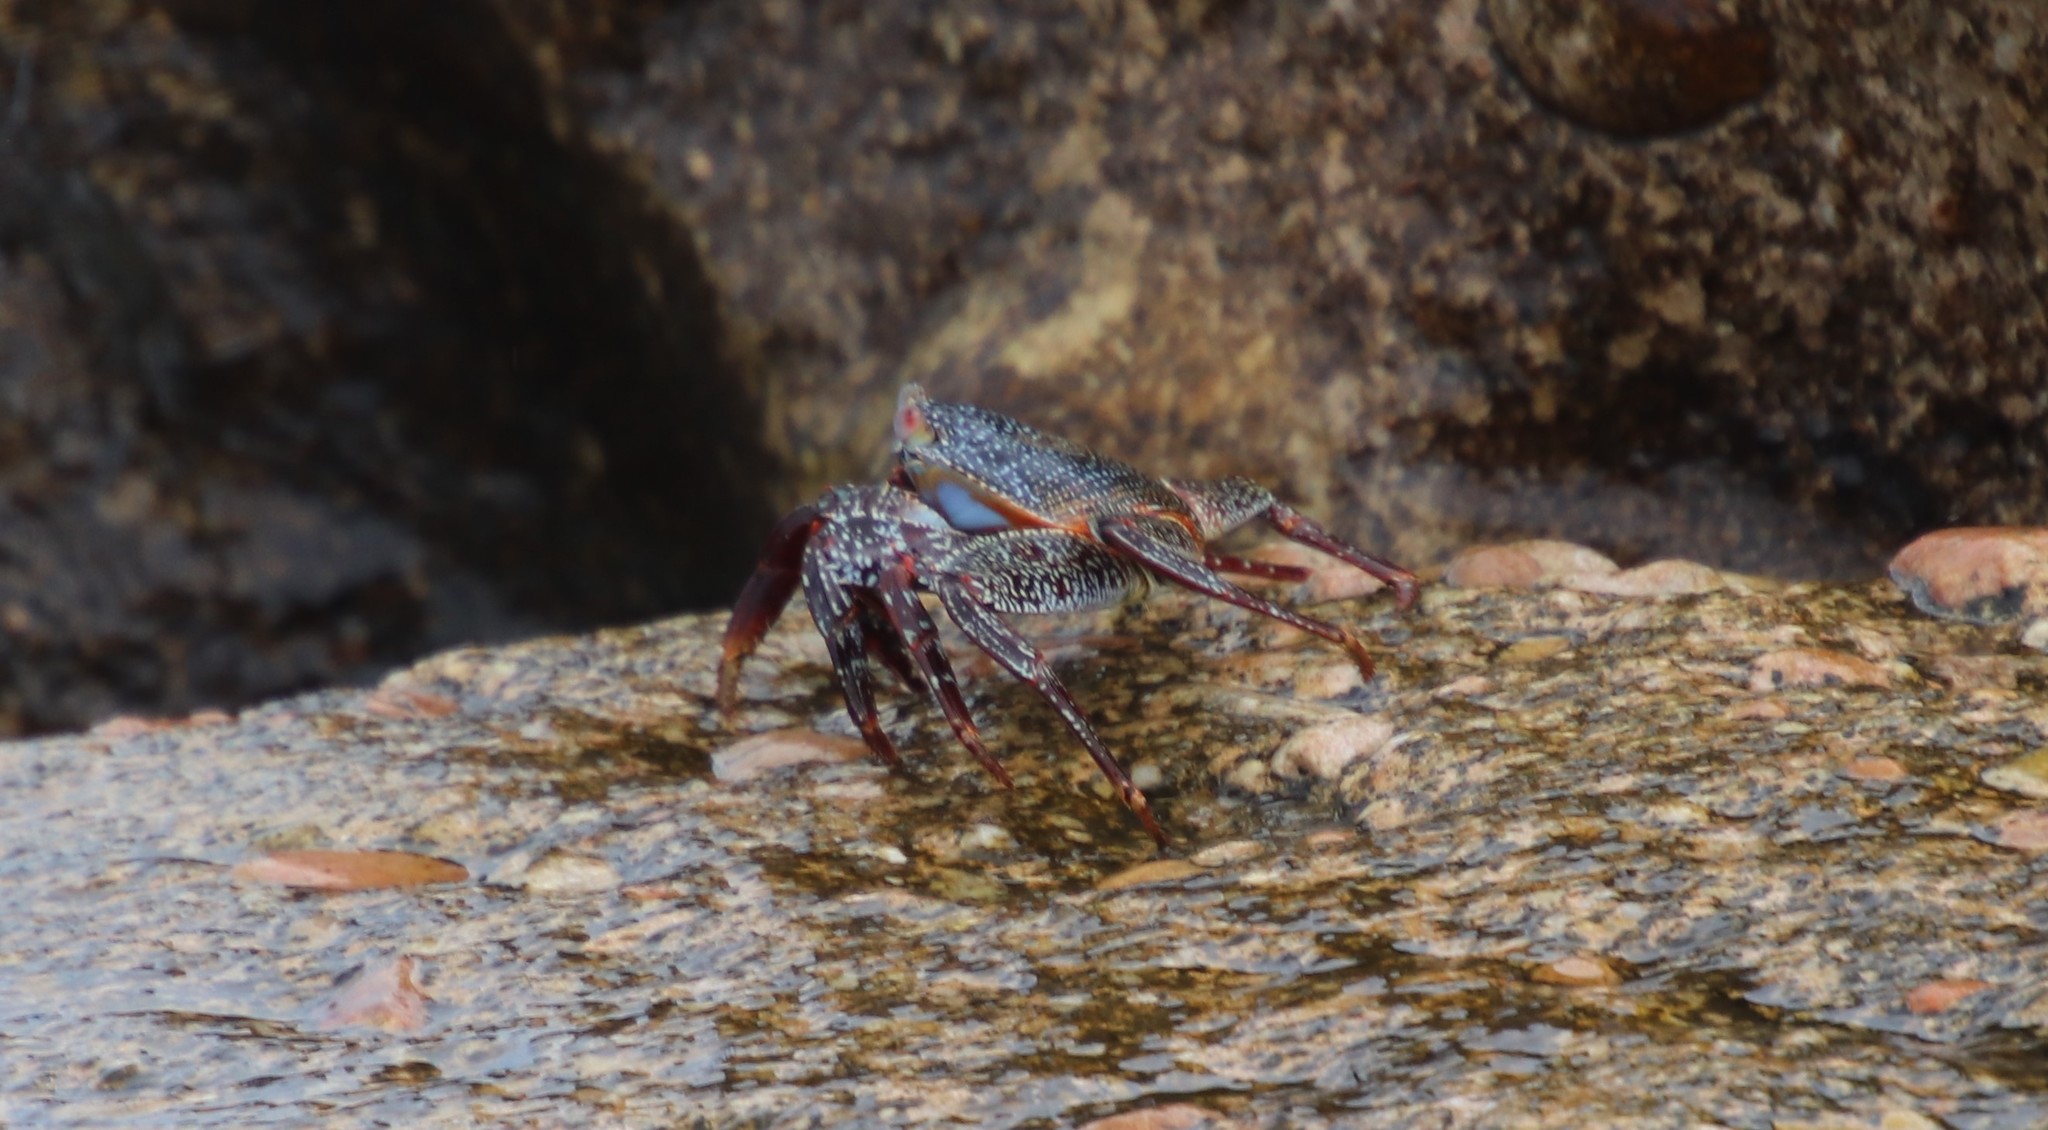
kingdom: Animalia
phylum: Arthropoda
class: Malacostraca
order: Decapoda
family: Grapsidae
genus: Grapsus
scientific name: Grapsus grapsus
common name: Sally lightfoot
